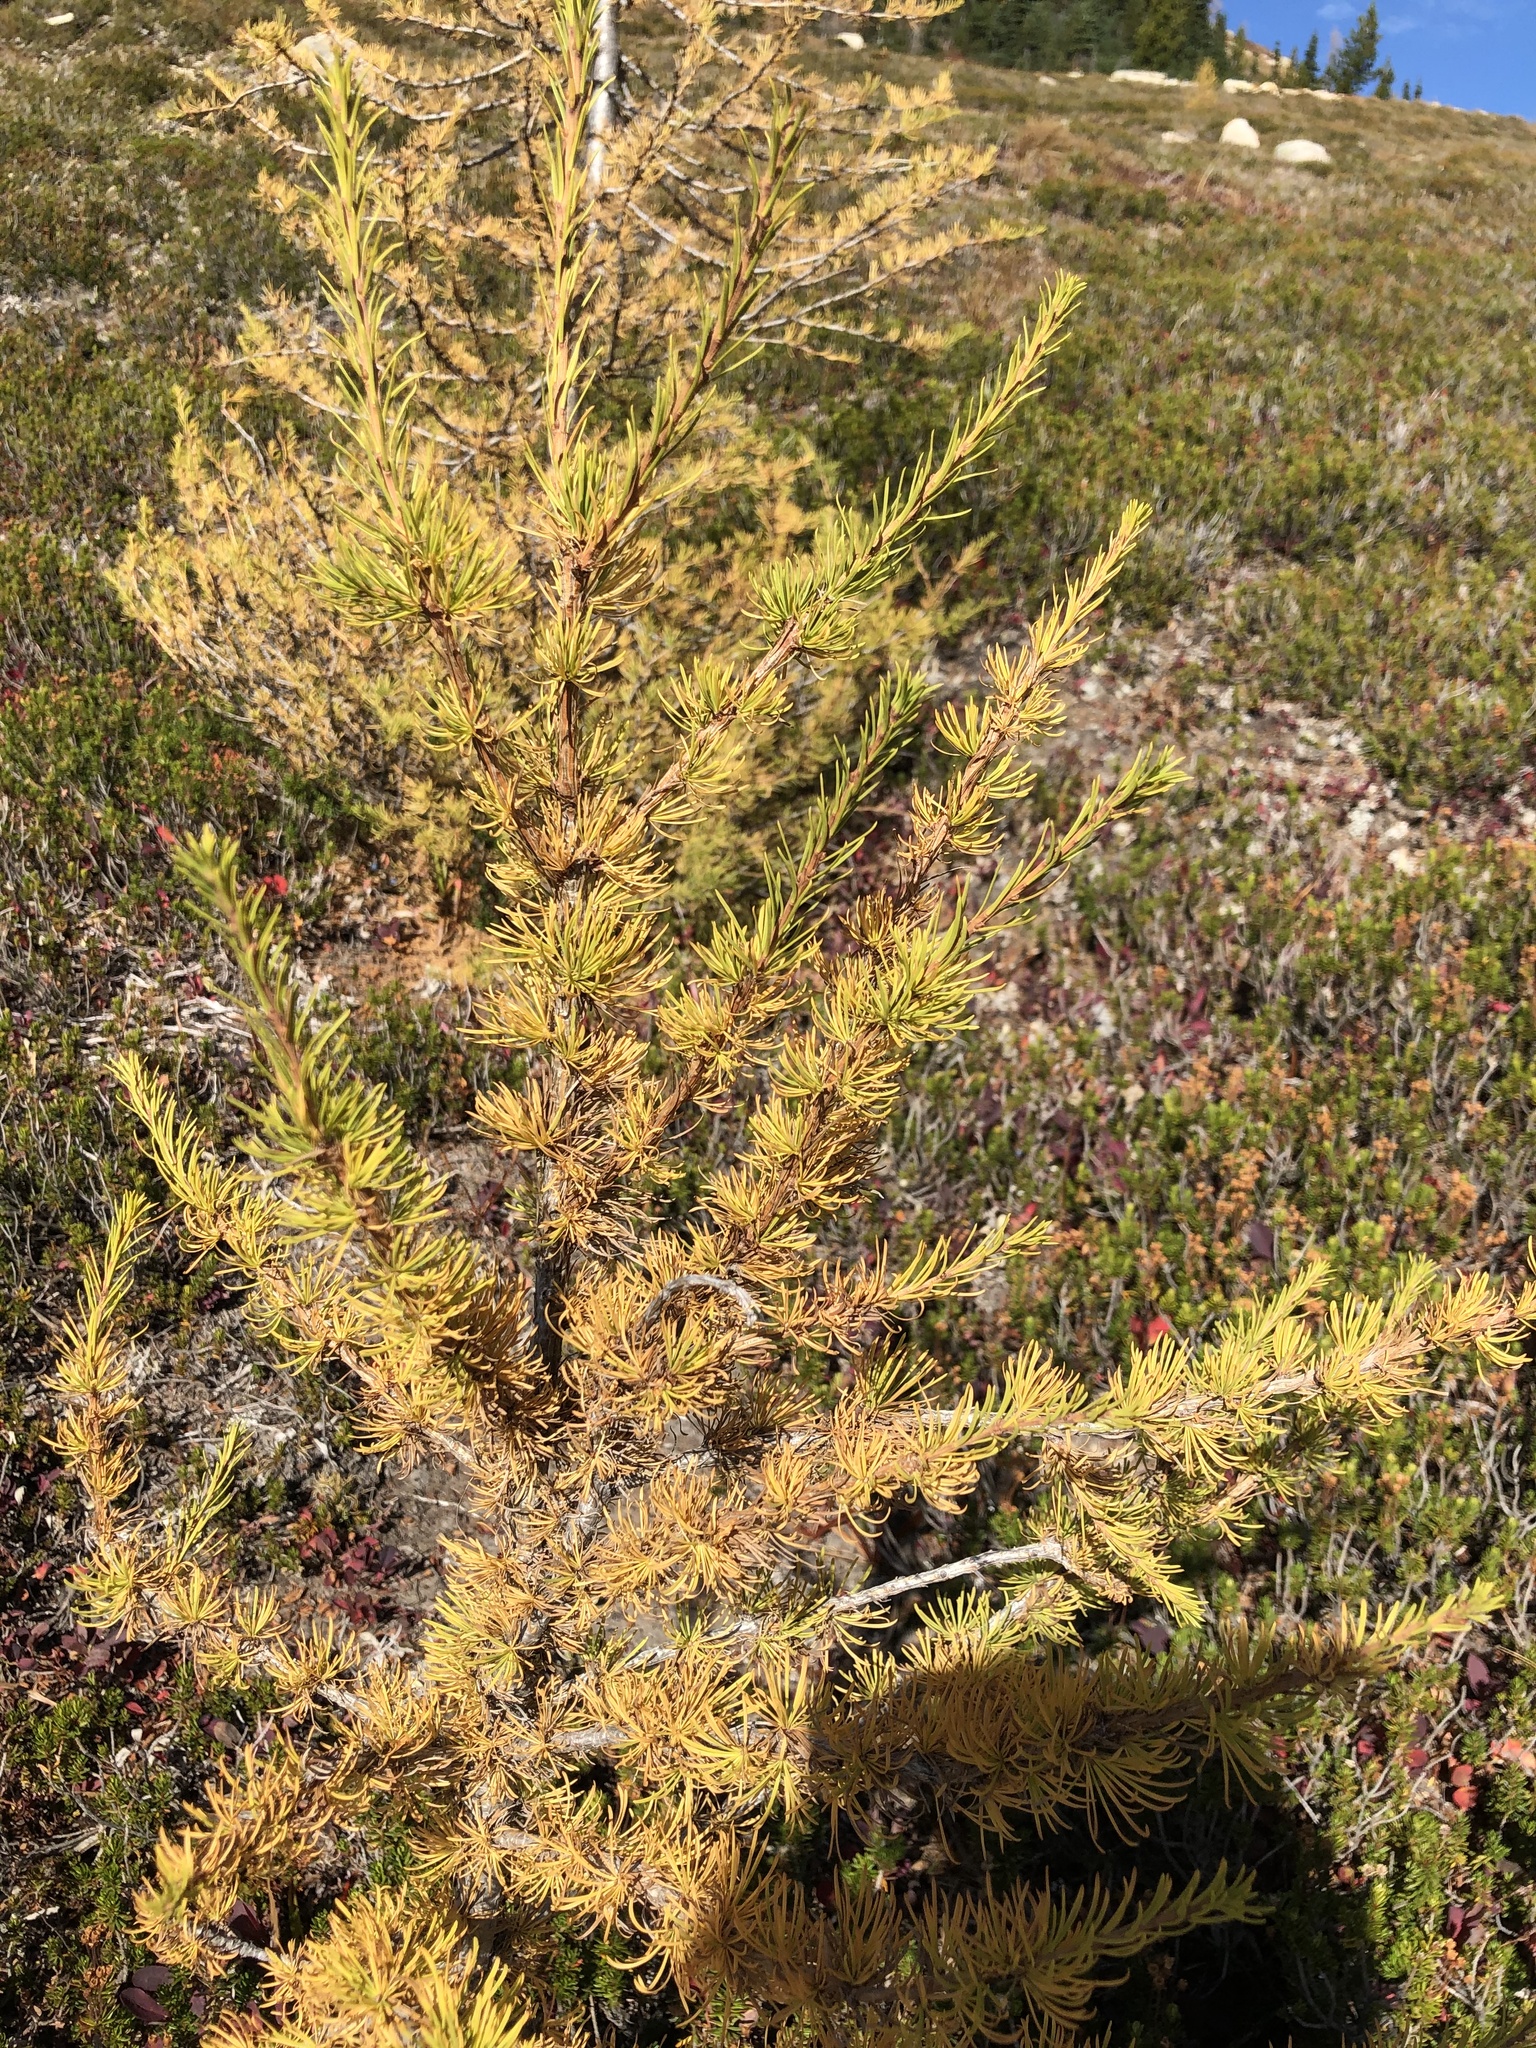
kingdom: Plantae
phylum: Tracheophyta
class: Pinopsida
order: Pinales
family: Pinaceae
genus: Larix
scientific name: Larix lyallii
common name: Alpine larch
